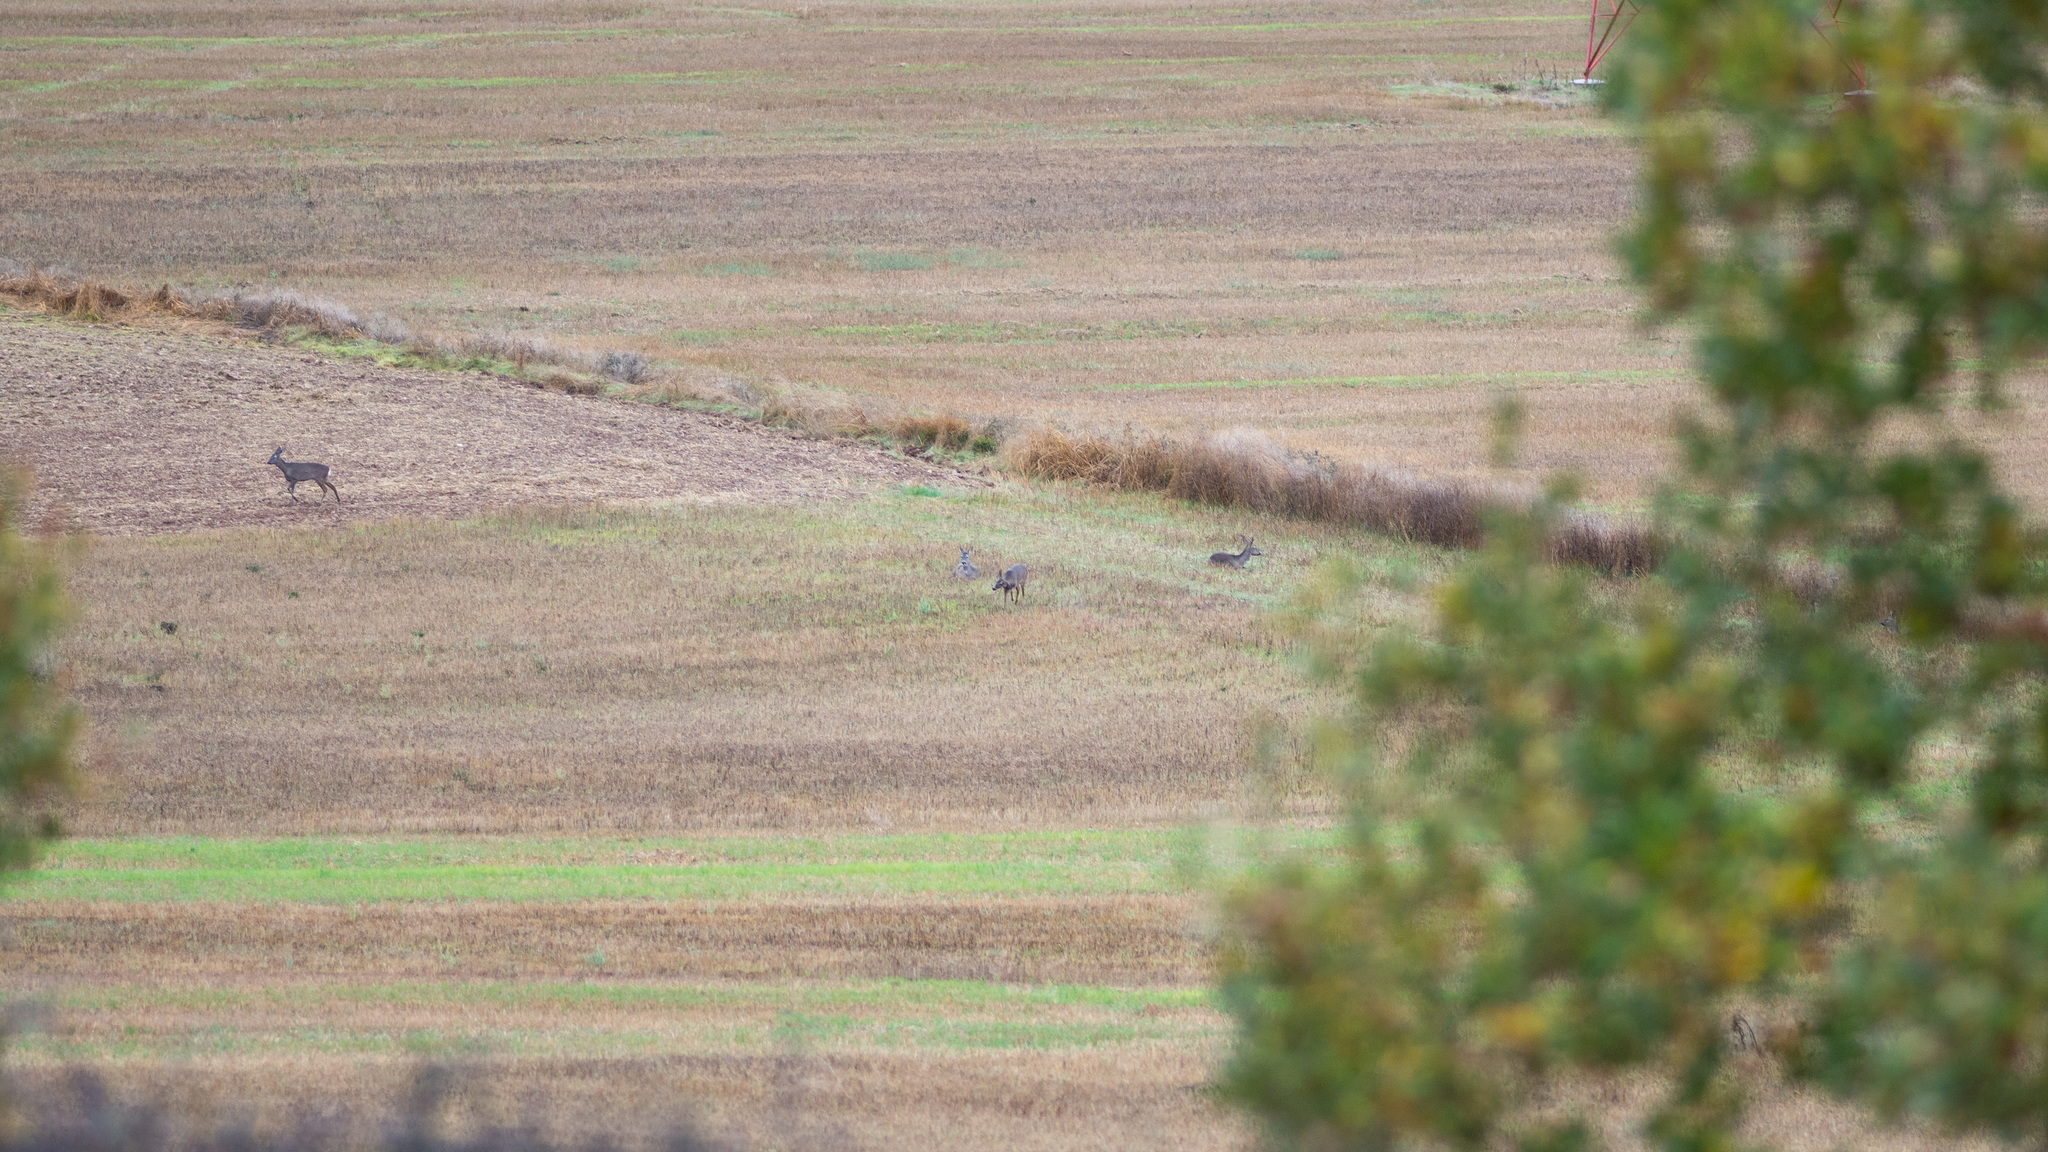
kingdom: Animalia
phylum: Chordata
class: Mammalia
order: Artiodactyla
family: Cervidae
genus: Capreolus
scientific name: Capreolus capreolus
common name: Western roe deer
